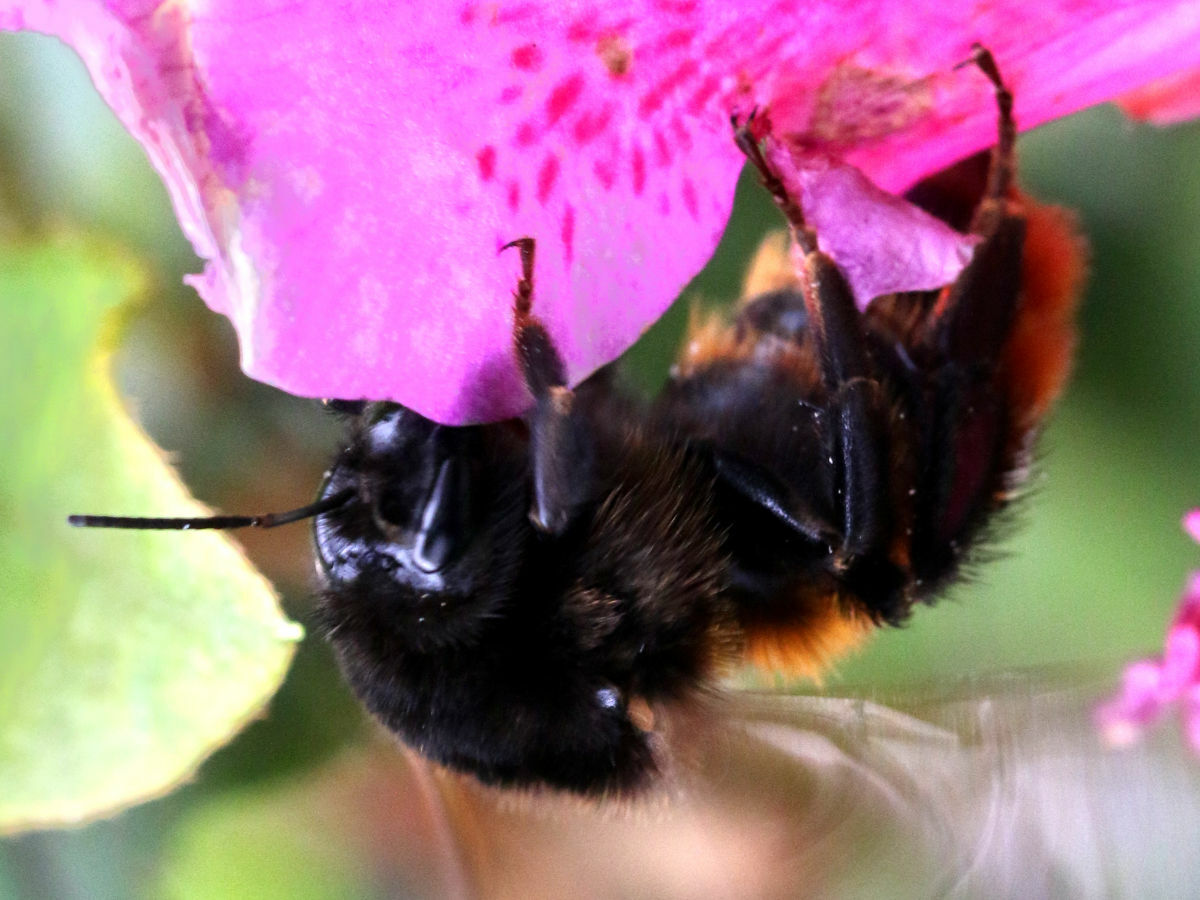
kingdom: Animalia
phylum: Arthropoda
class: Insecta
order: Hymenoptera
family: Apidae
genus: Bombus
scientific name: Bombus bicoloratus
